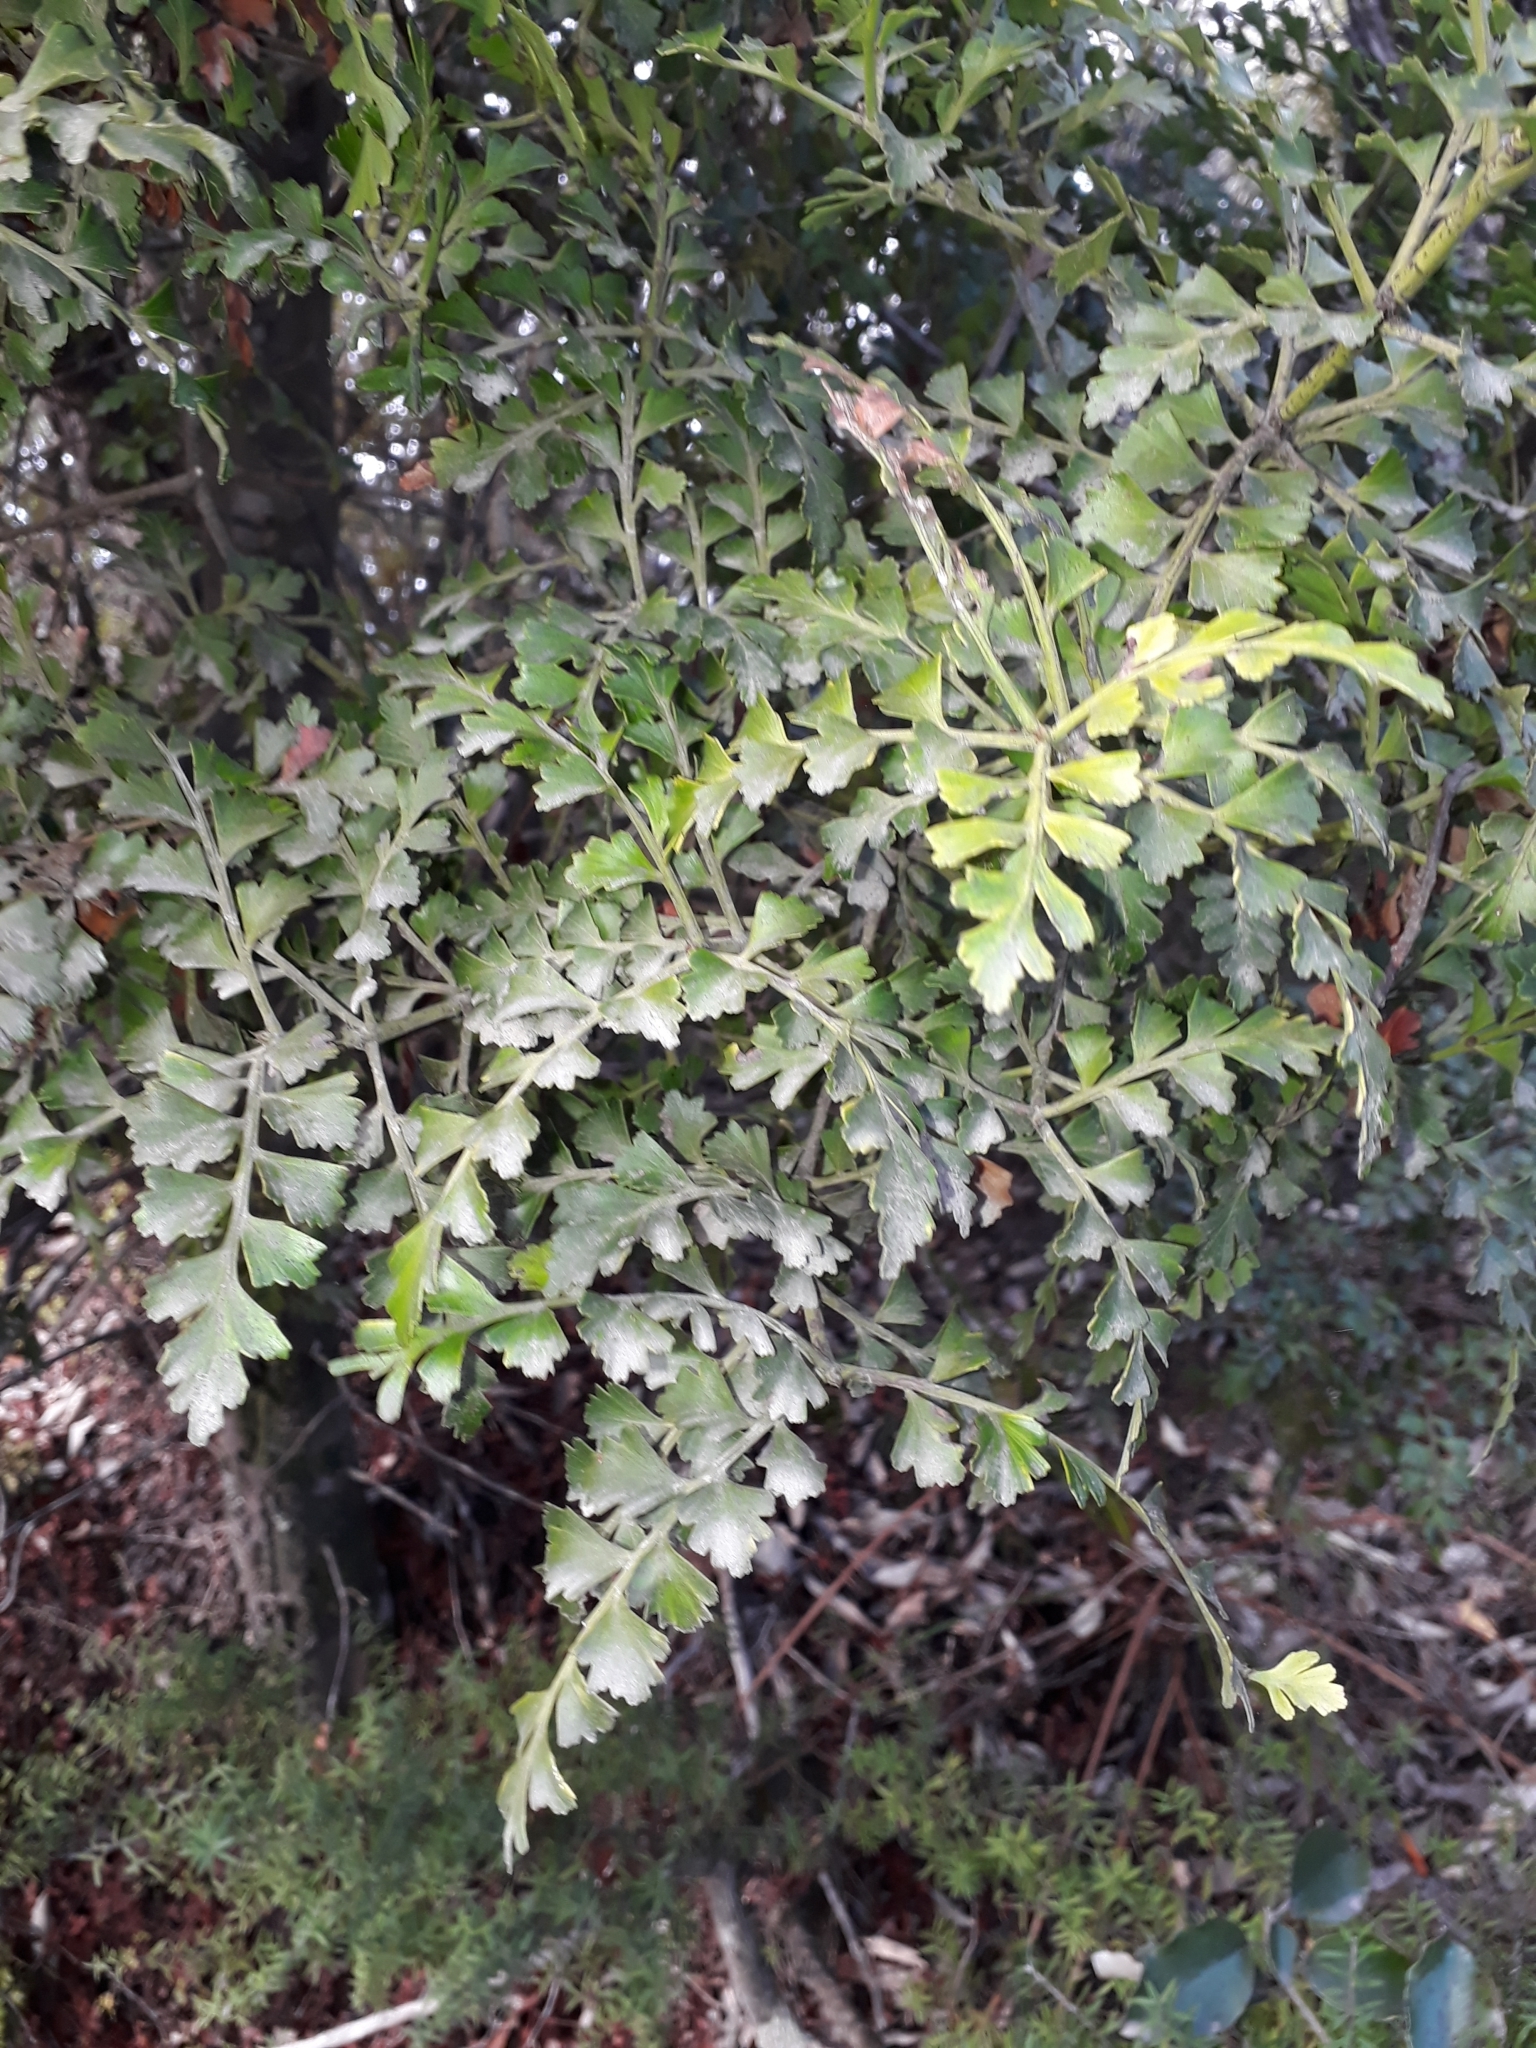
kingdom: Plantae
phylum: Tracheophyta
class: Pinopsida
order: Pinales
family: Phyllocladaceae
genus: Phyllocladus
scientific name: Phyllocladus trichomanoides
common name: Celery pine
